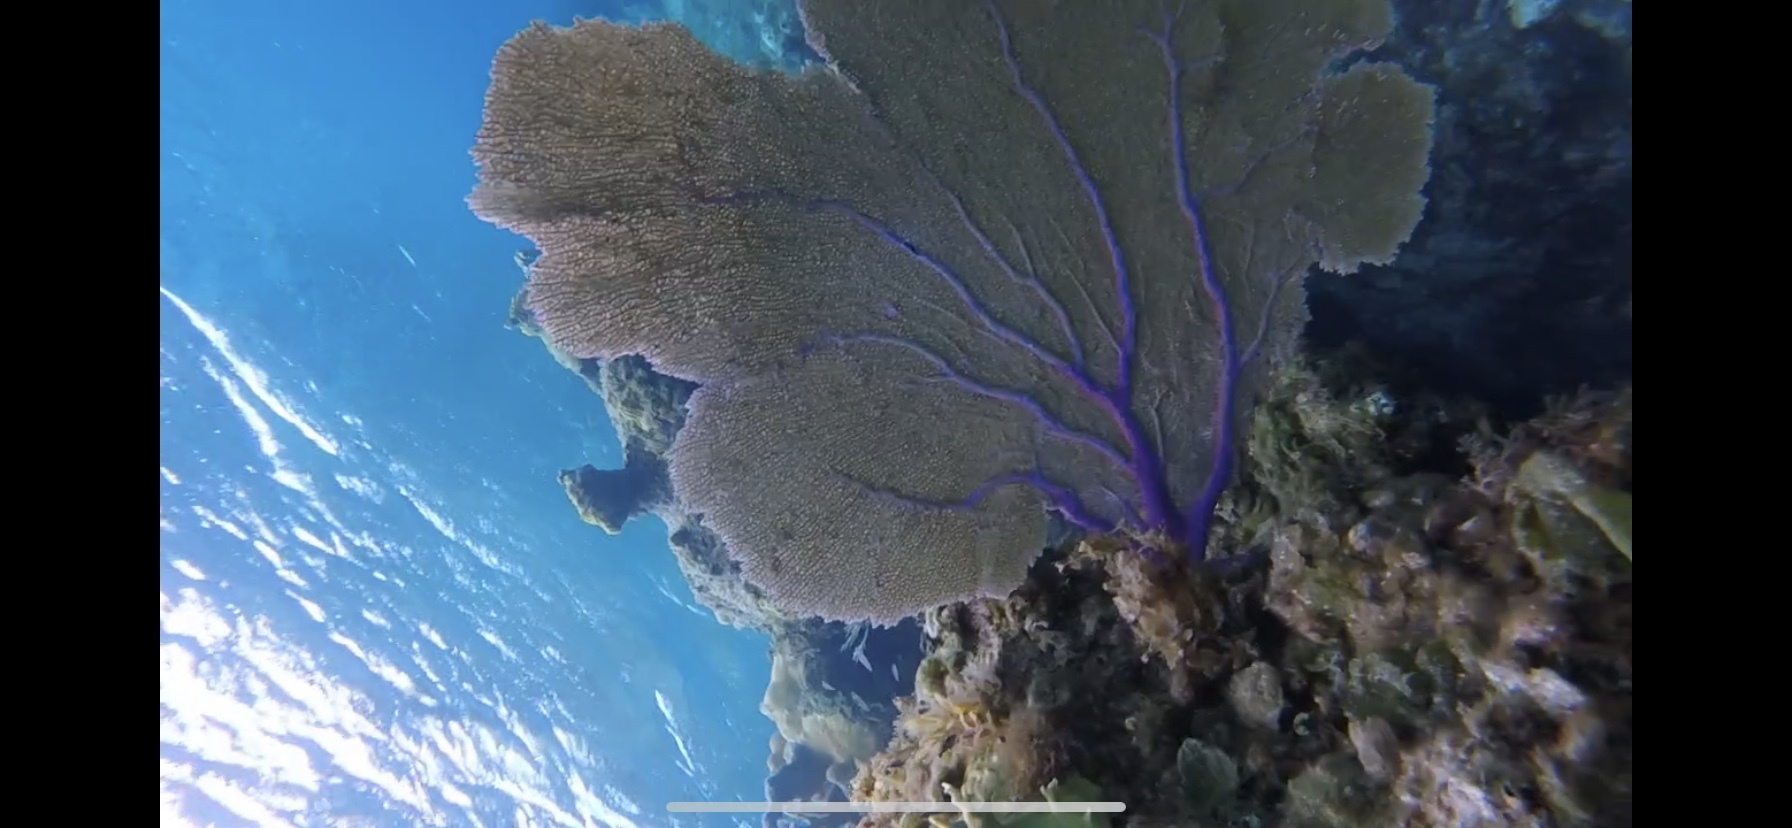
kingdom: Animalia
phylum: Cnidaria
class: Anthozoa
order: Malacalcyonacea
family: Gorgoniidae
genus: Gorgonia
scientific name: Gorgonia ventalina
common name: Common sea fan
